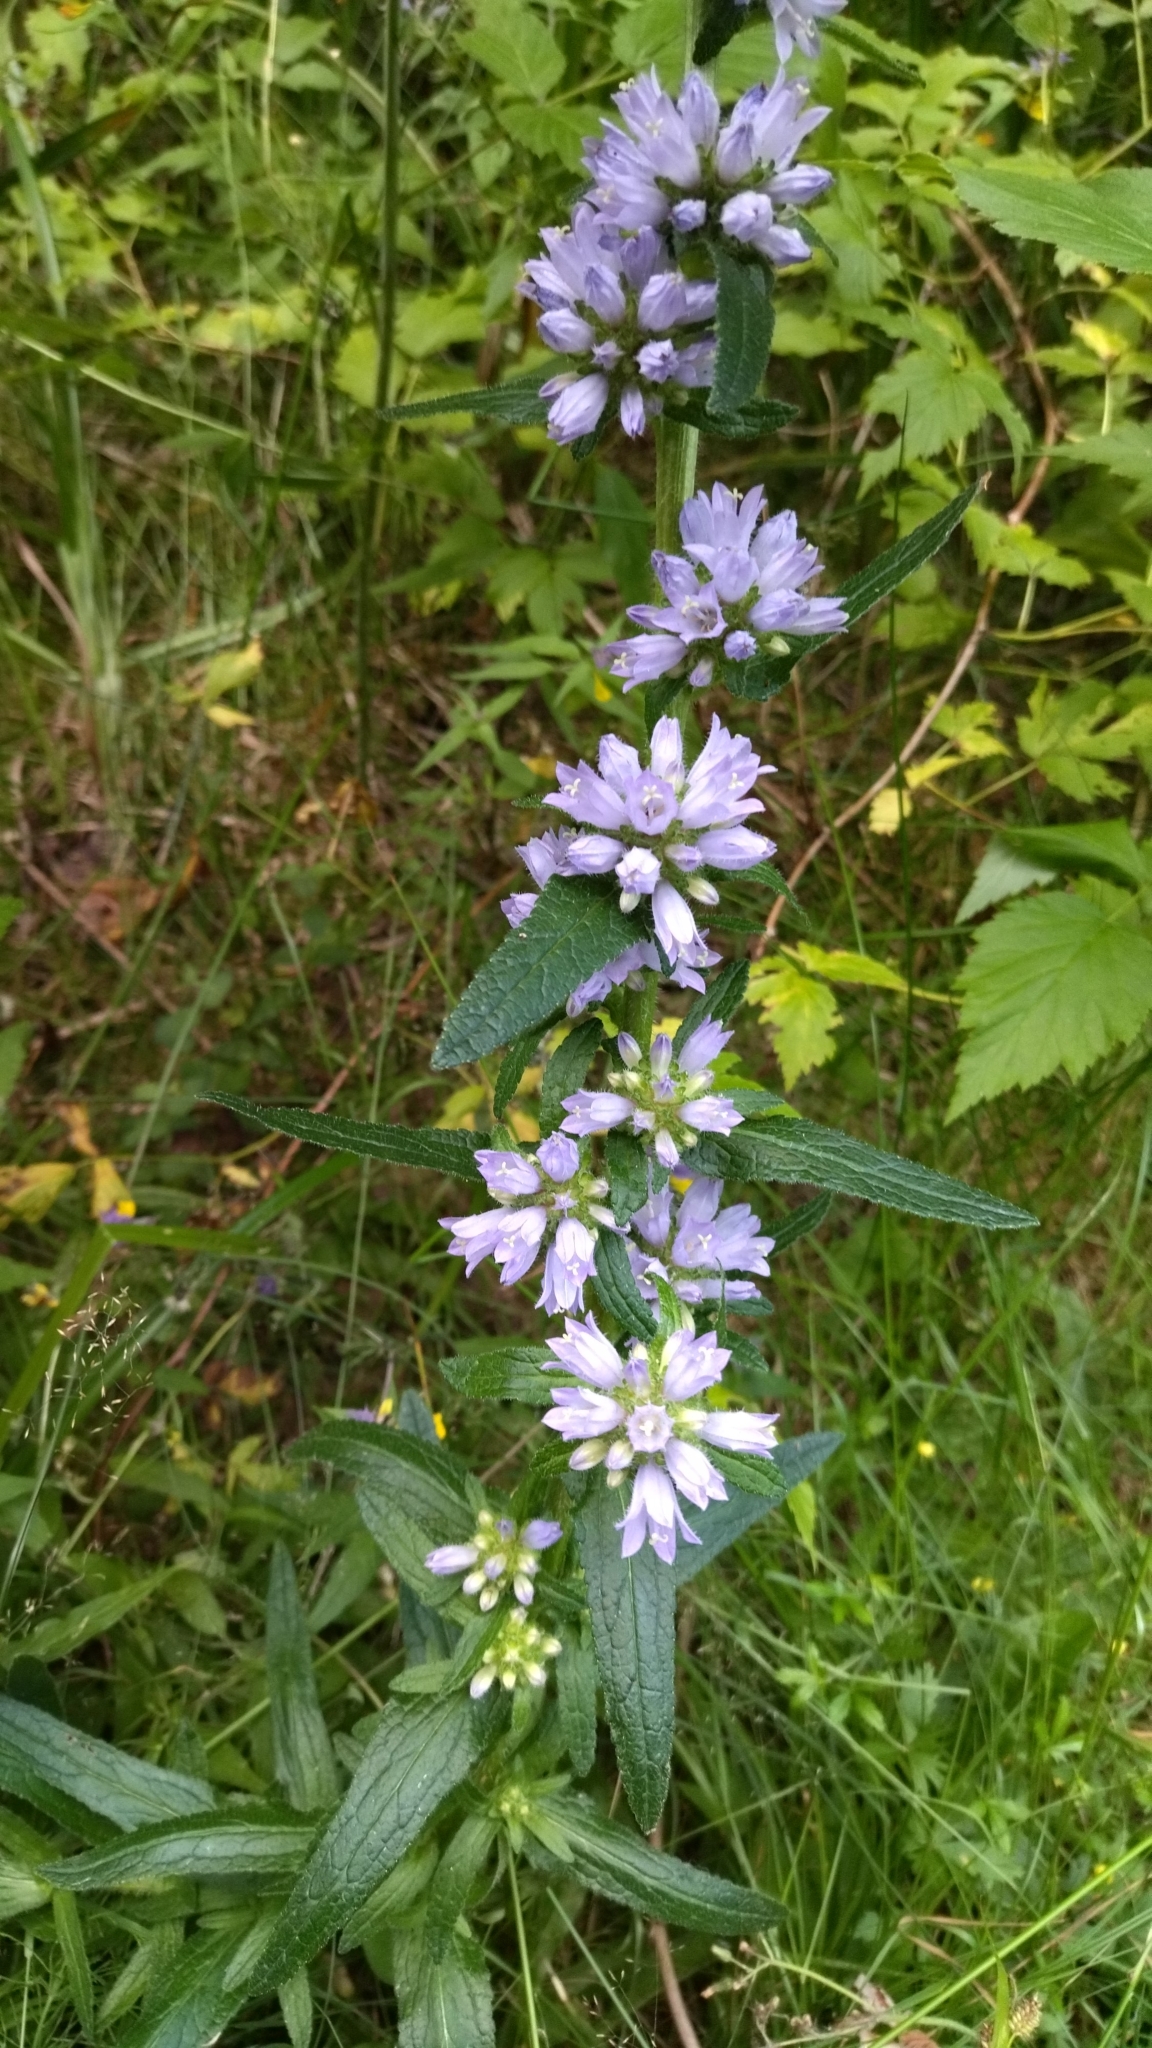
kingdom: Plantae
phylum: Tracheophyta
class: Magnoliopsida
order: Asterales
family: Campanulaceae
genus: Campanula
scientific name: Campanula cervicaria
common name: Bristly bellflower
